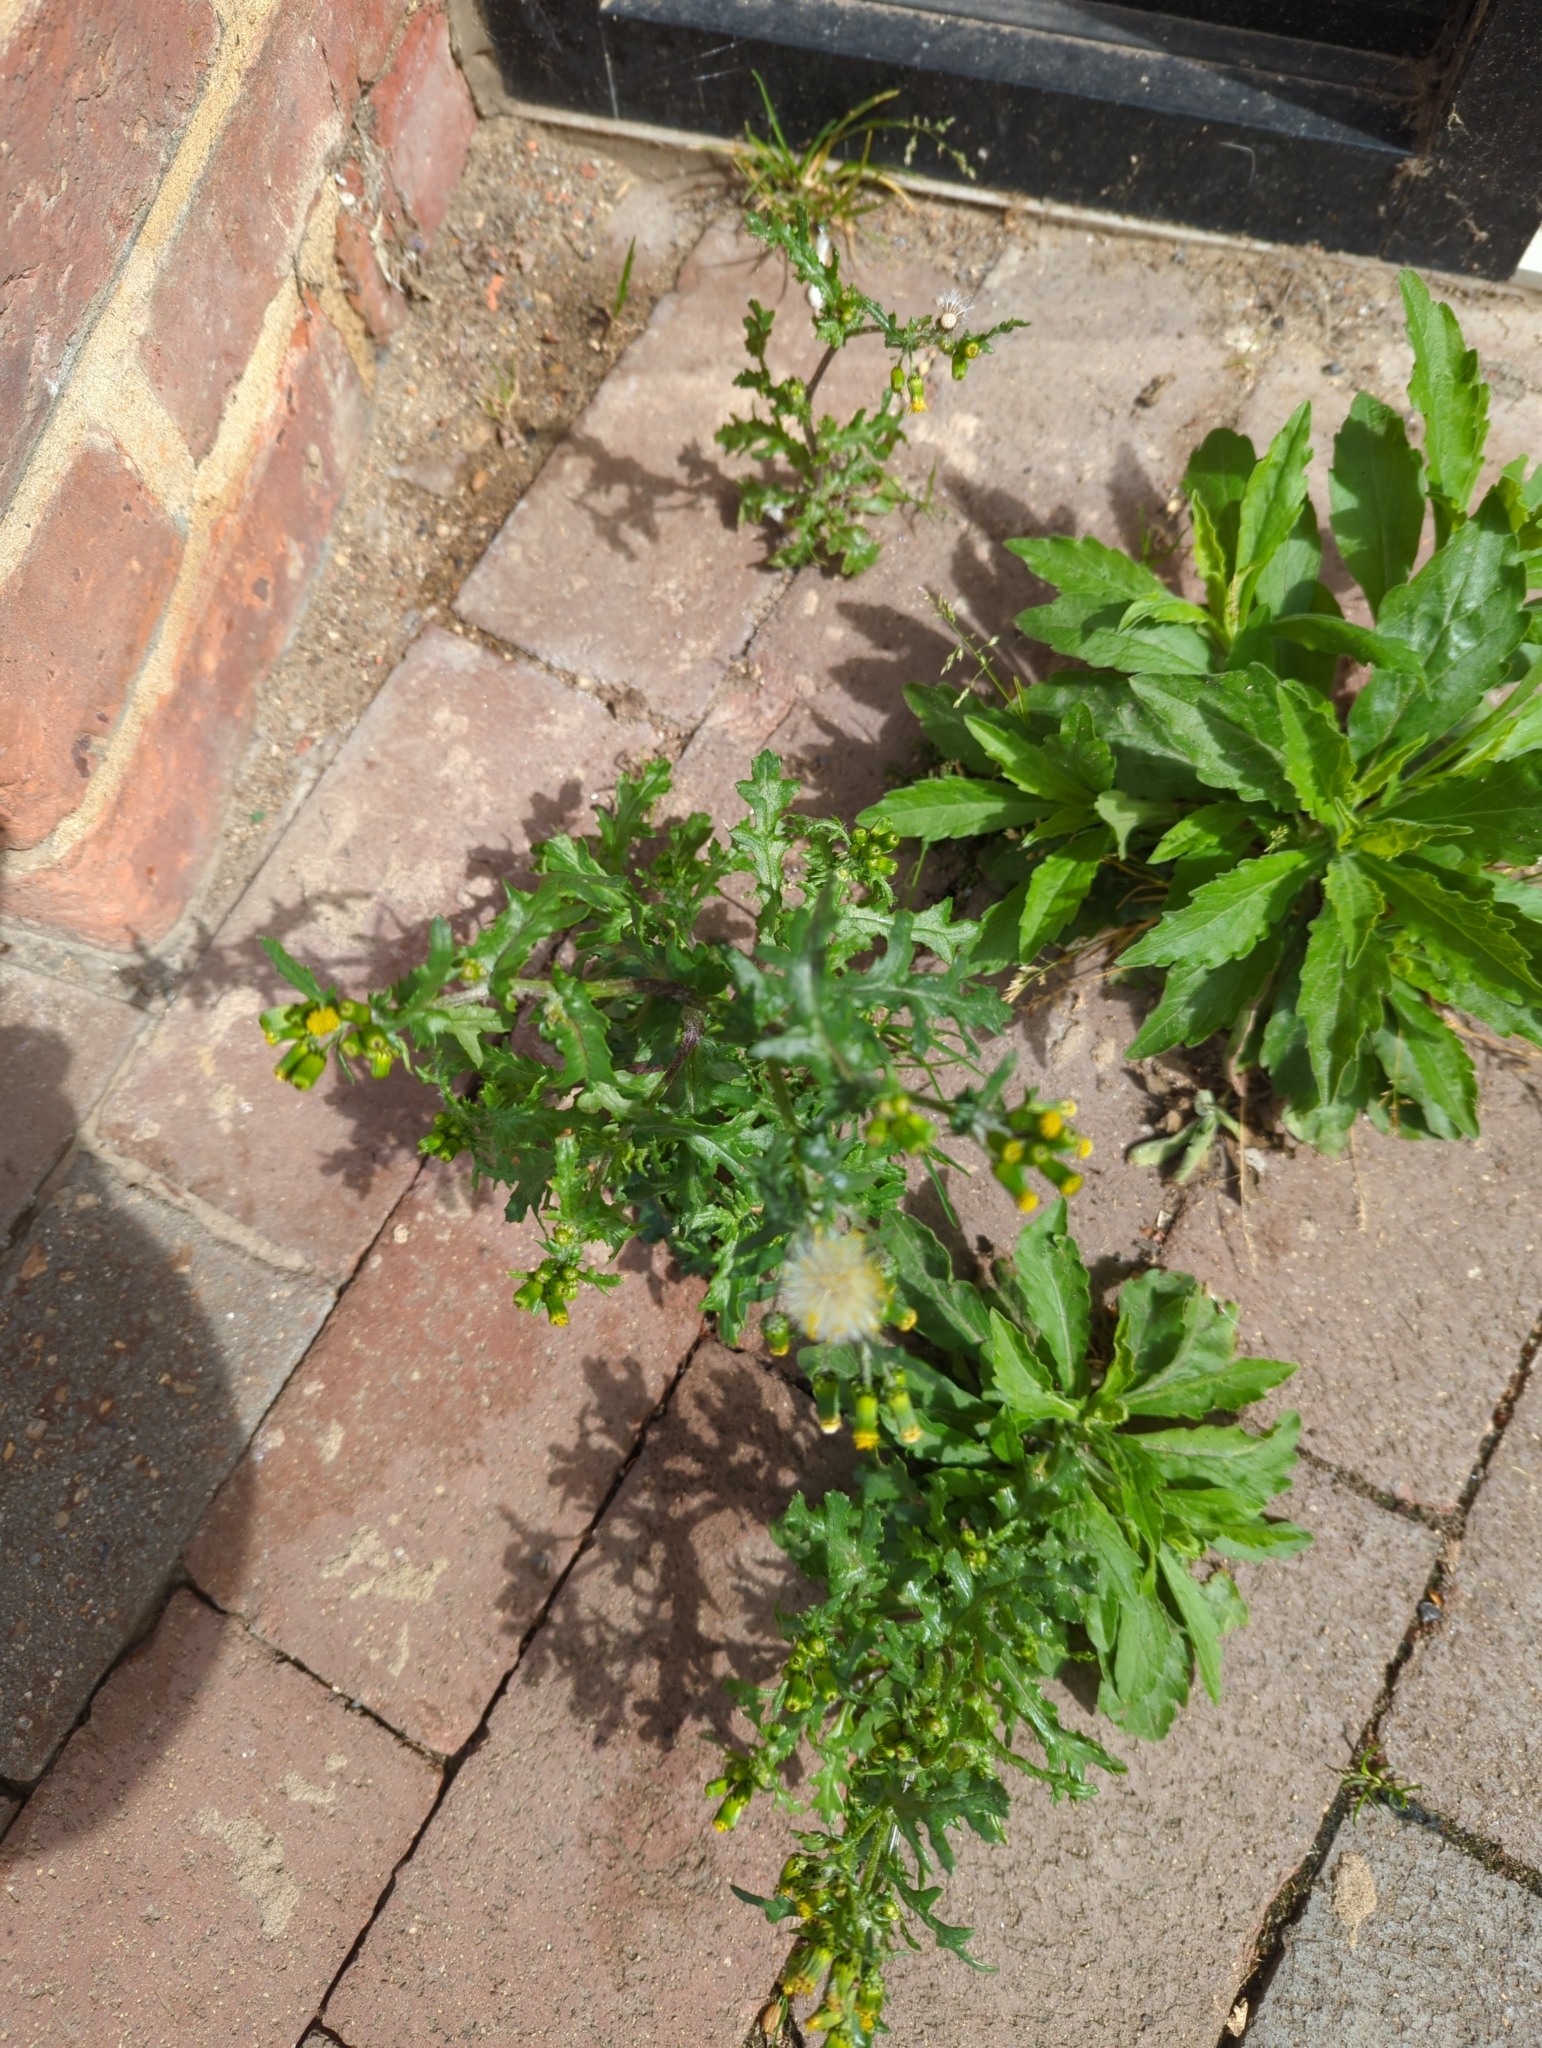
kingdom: Plantae
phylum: Tracheophyta
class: Magnoliopsida
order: Asterales
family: Asteraceae
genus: Senecio
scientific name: Senecio vulgaris
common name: Old-man-in-the-spring
